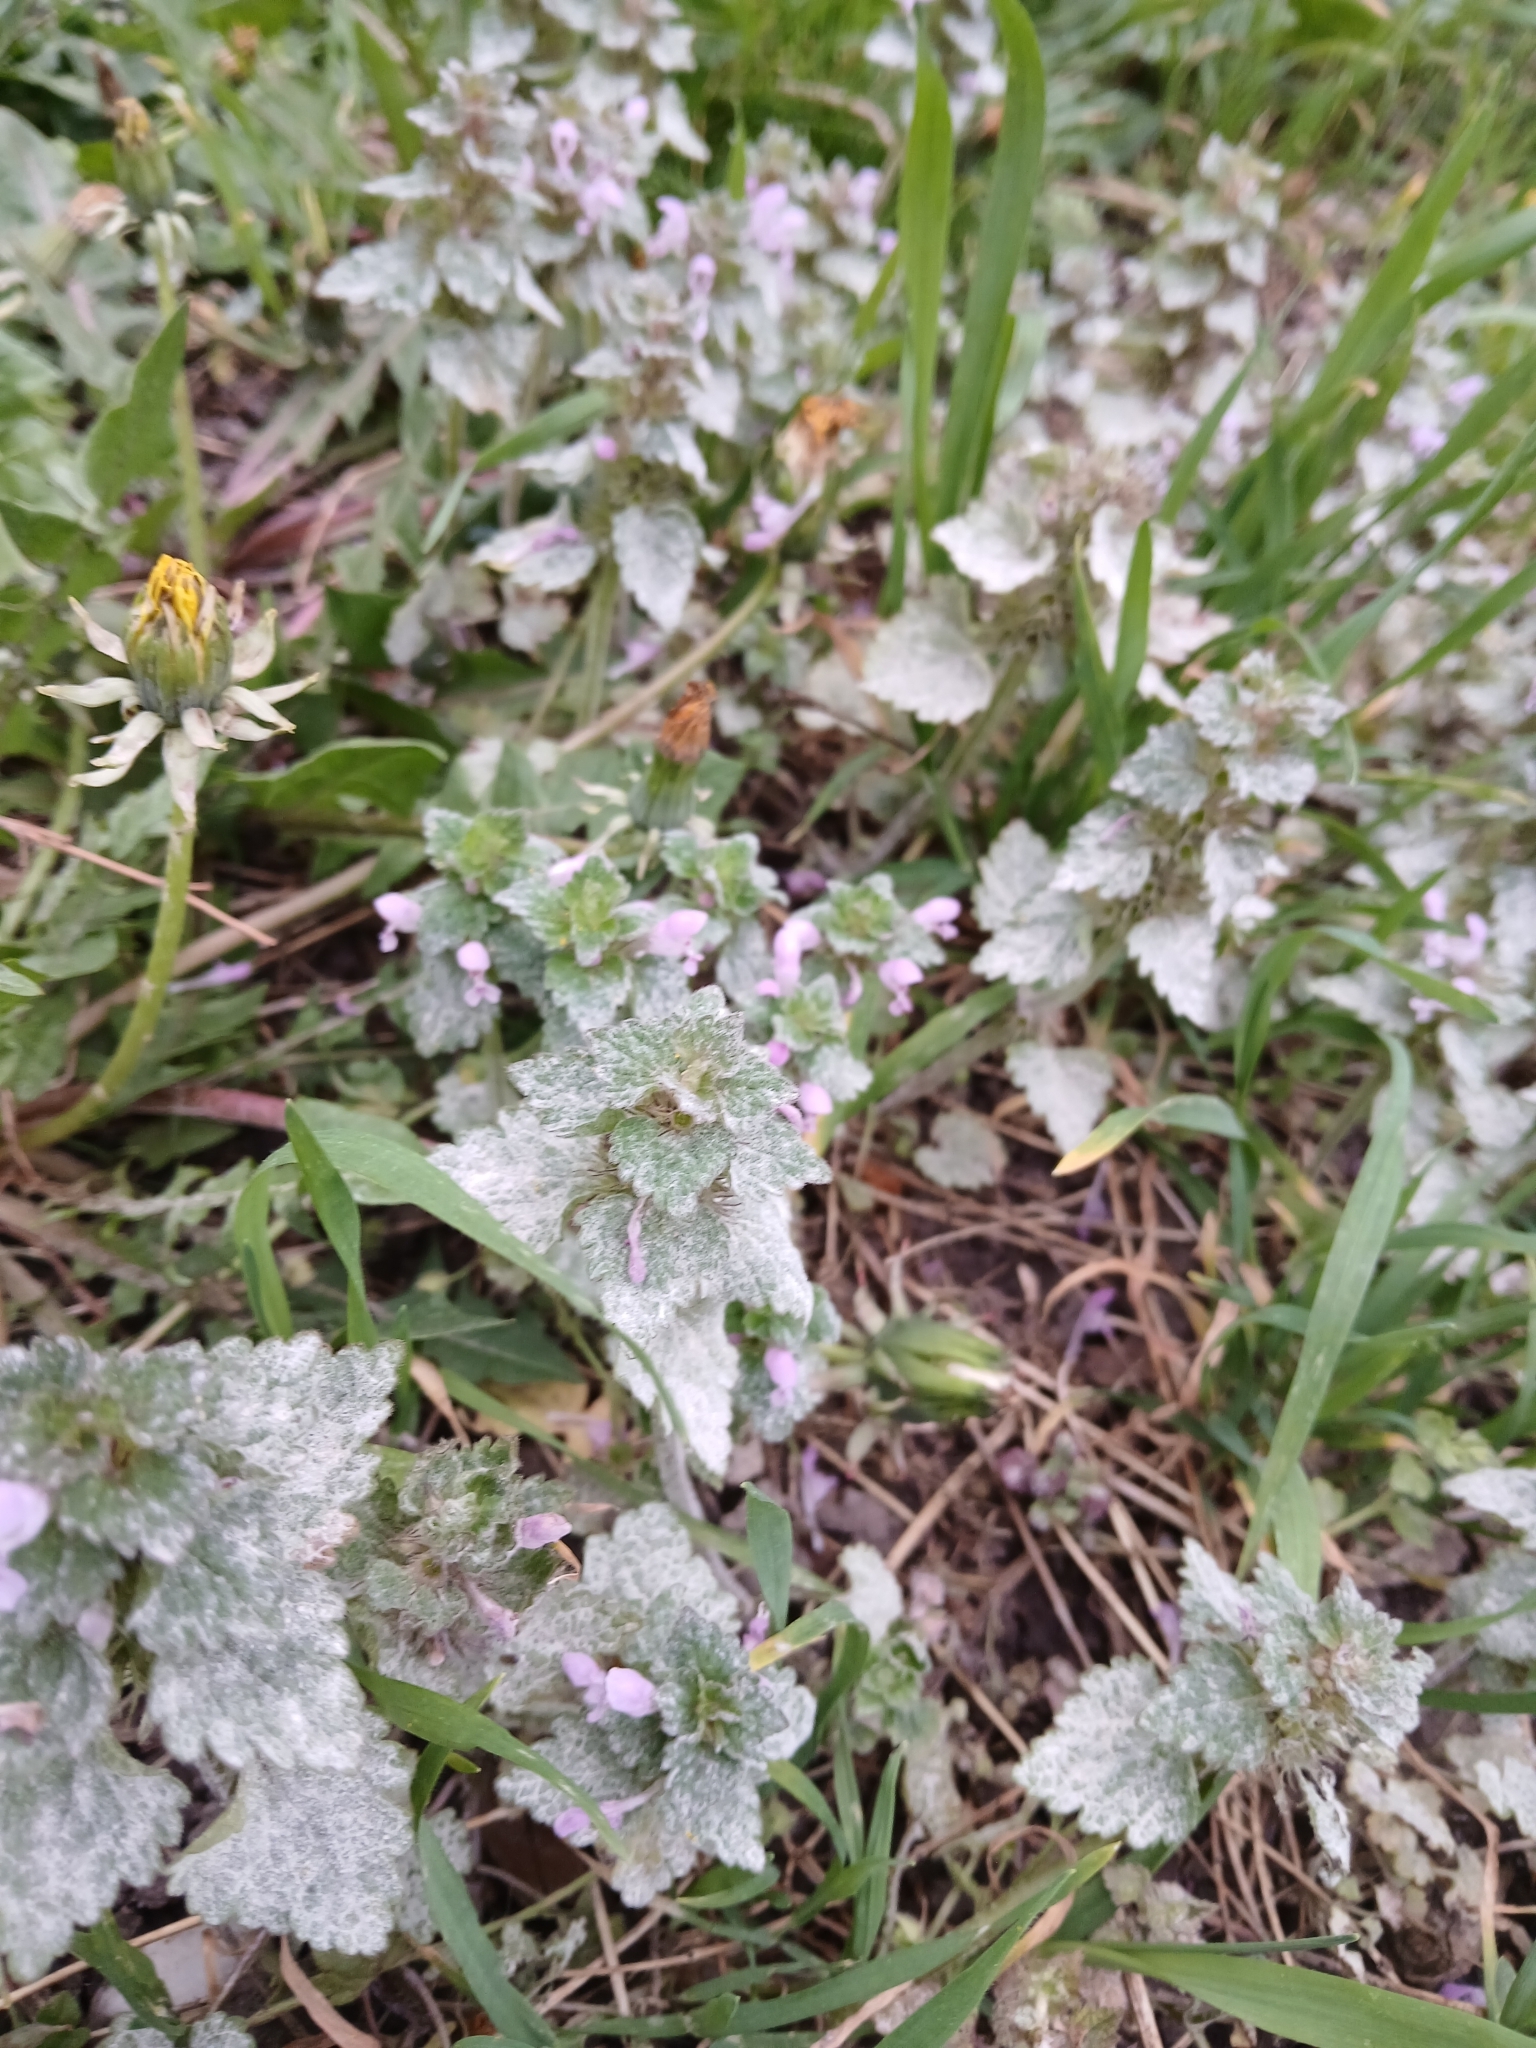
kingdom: Fungi
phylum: Ascomycota
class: Leotiomycetes
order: Helotiales
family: Erysiphaceae
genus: Neoerysiphe
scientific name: Neoerysiphe galeopsidis
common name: Mint mildew
